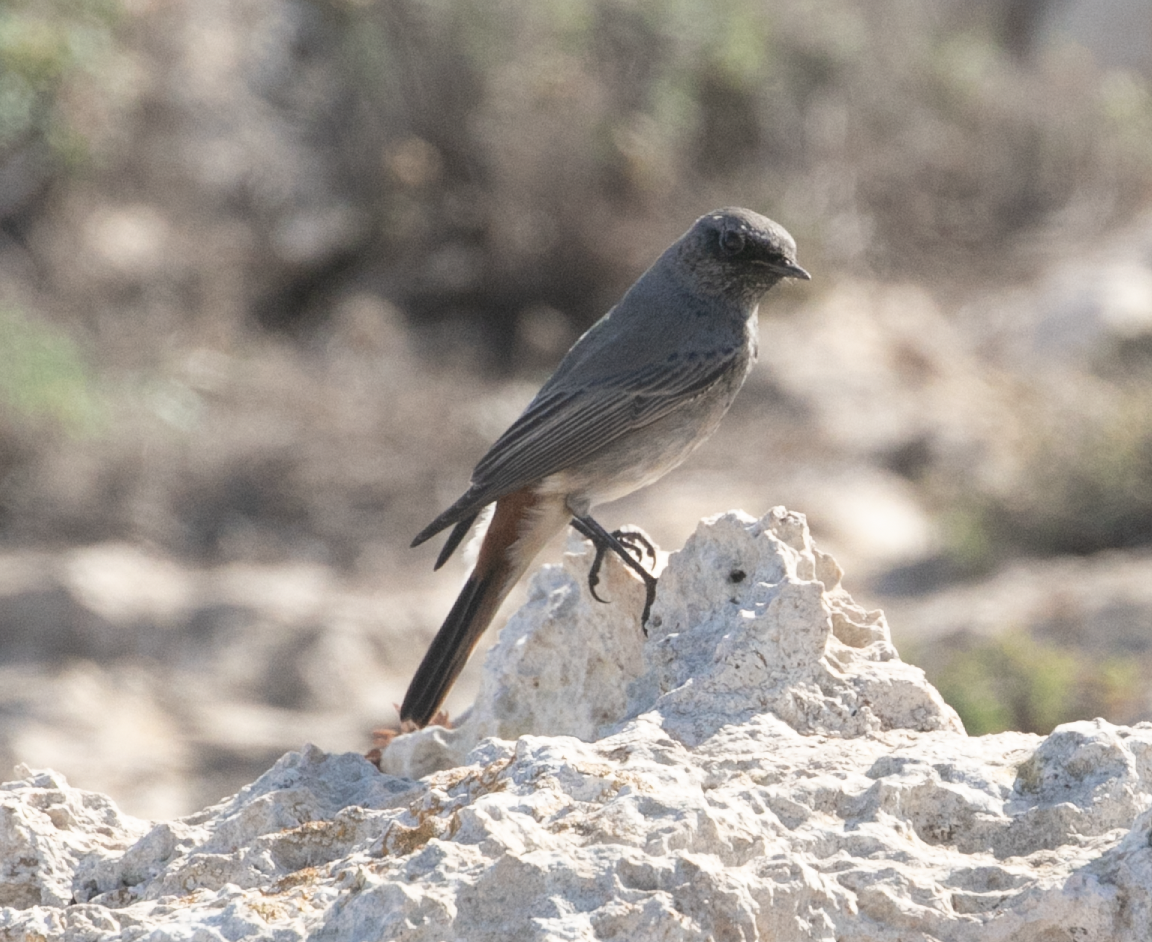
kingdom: Animalia
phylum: Chordata
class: Aves
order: Passeriformes
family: Muscicapidae
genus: Phoenicurus
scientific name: Phoenicurus ochruros
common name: Black redstart
